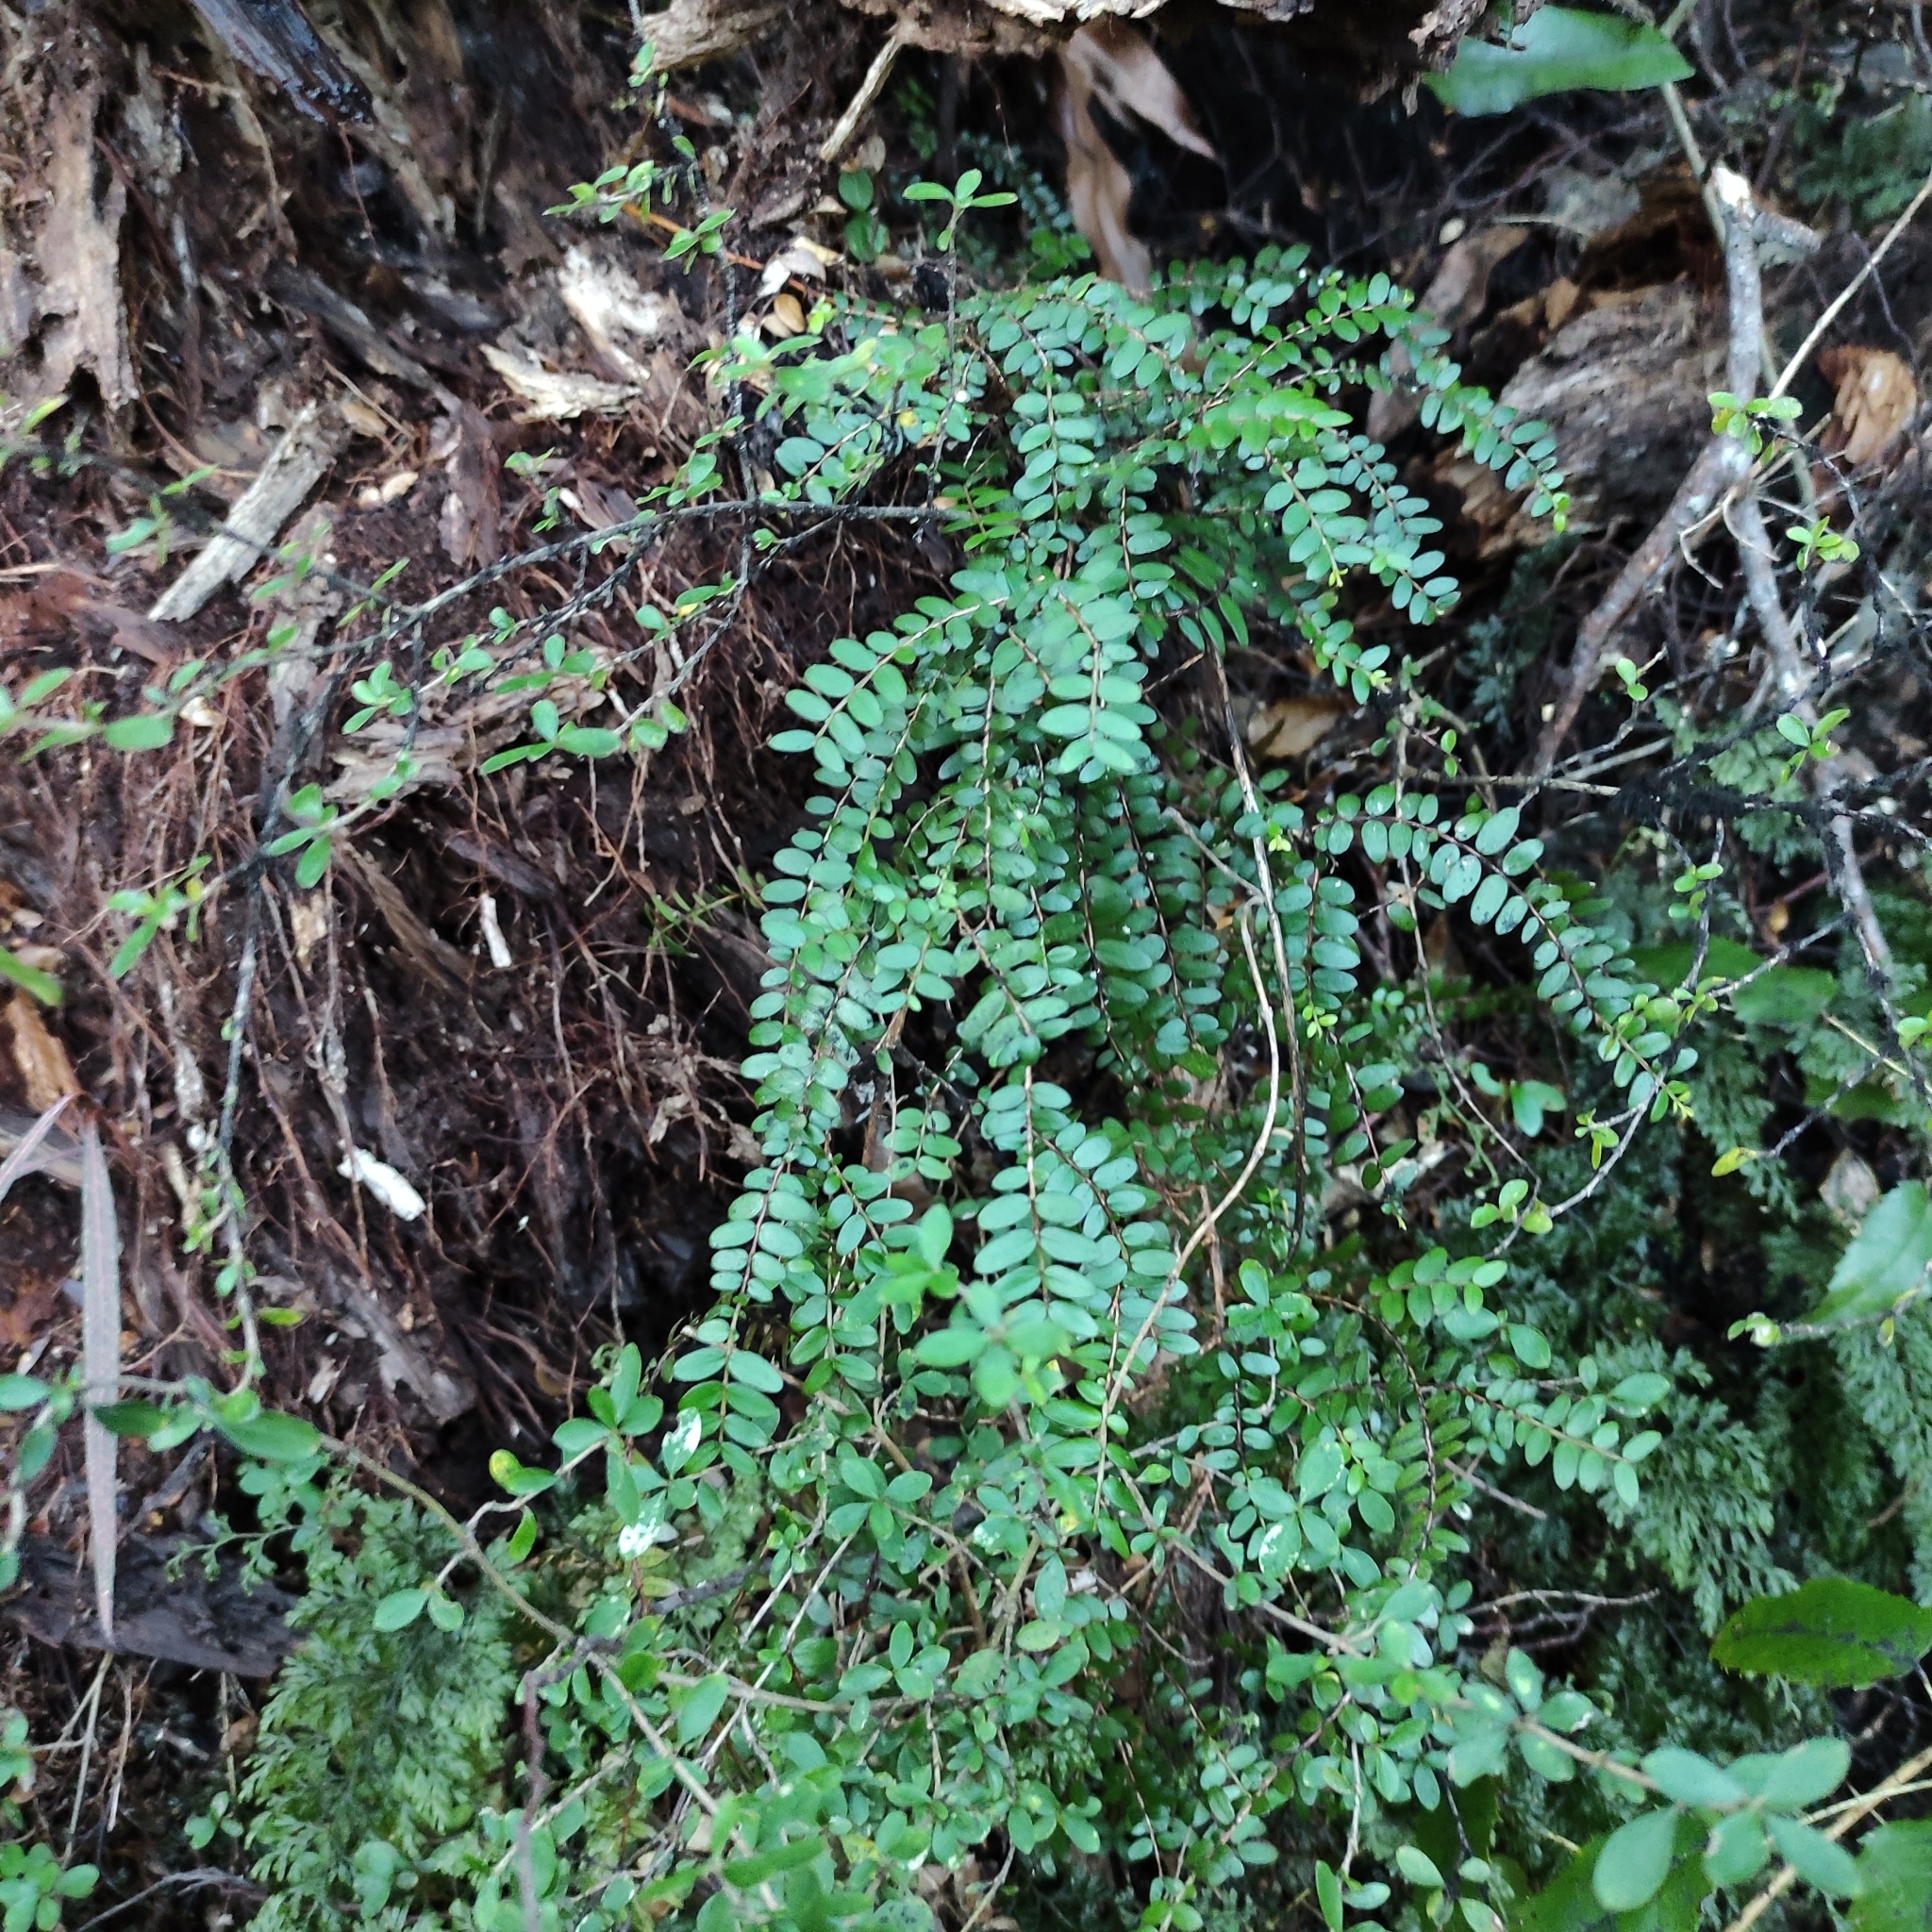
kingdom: Plantae
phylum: Tracheophyta
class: Magnoliopsida
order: Myrtales
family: Myrtaceae
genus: Metrosideros
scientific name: Metrosideros diffusa
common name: Small ratavine
